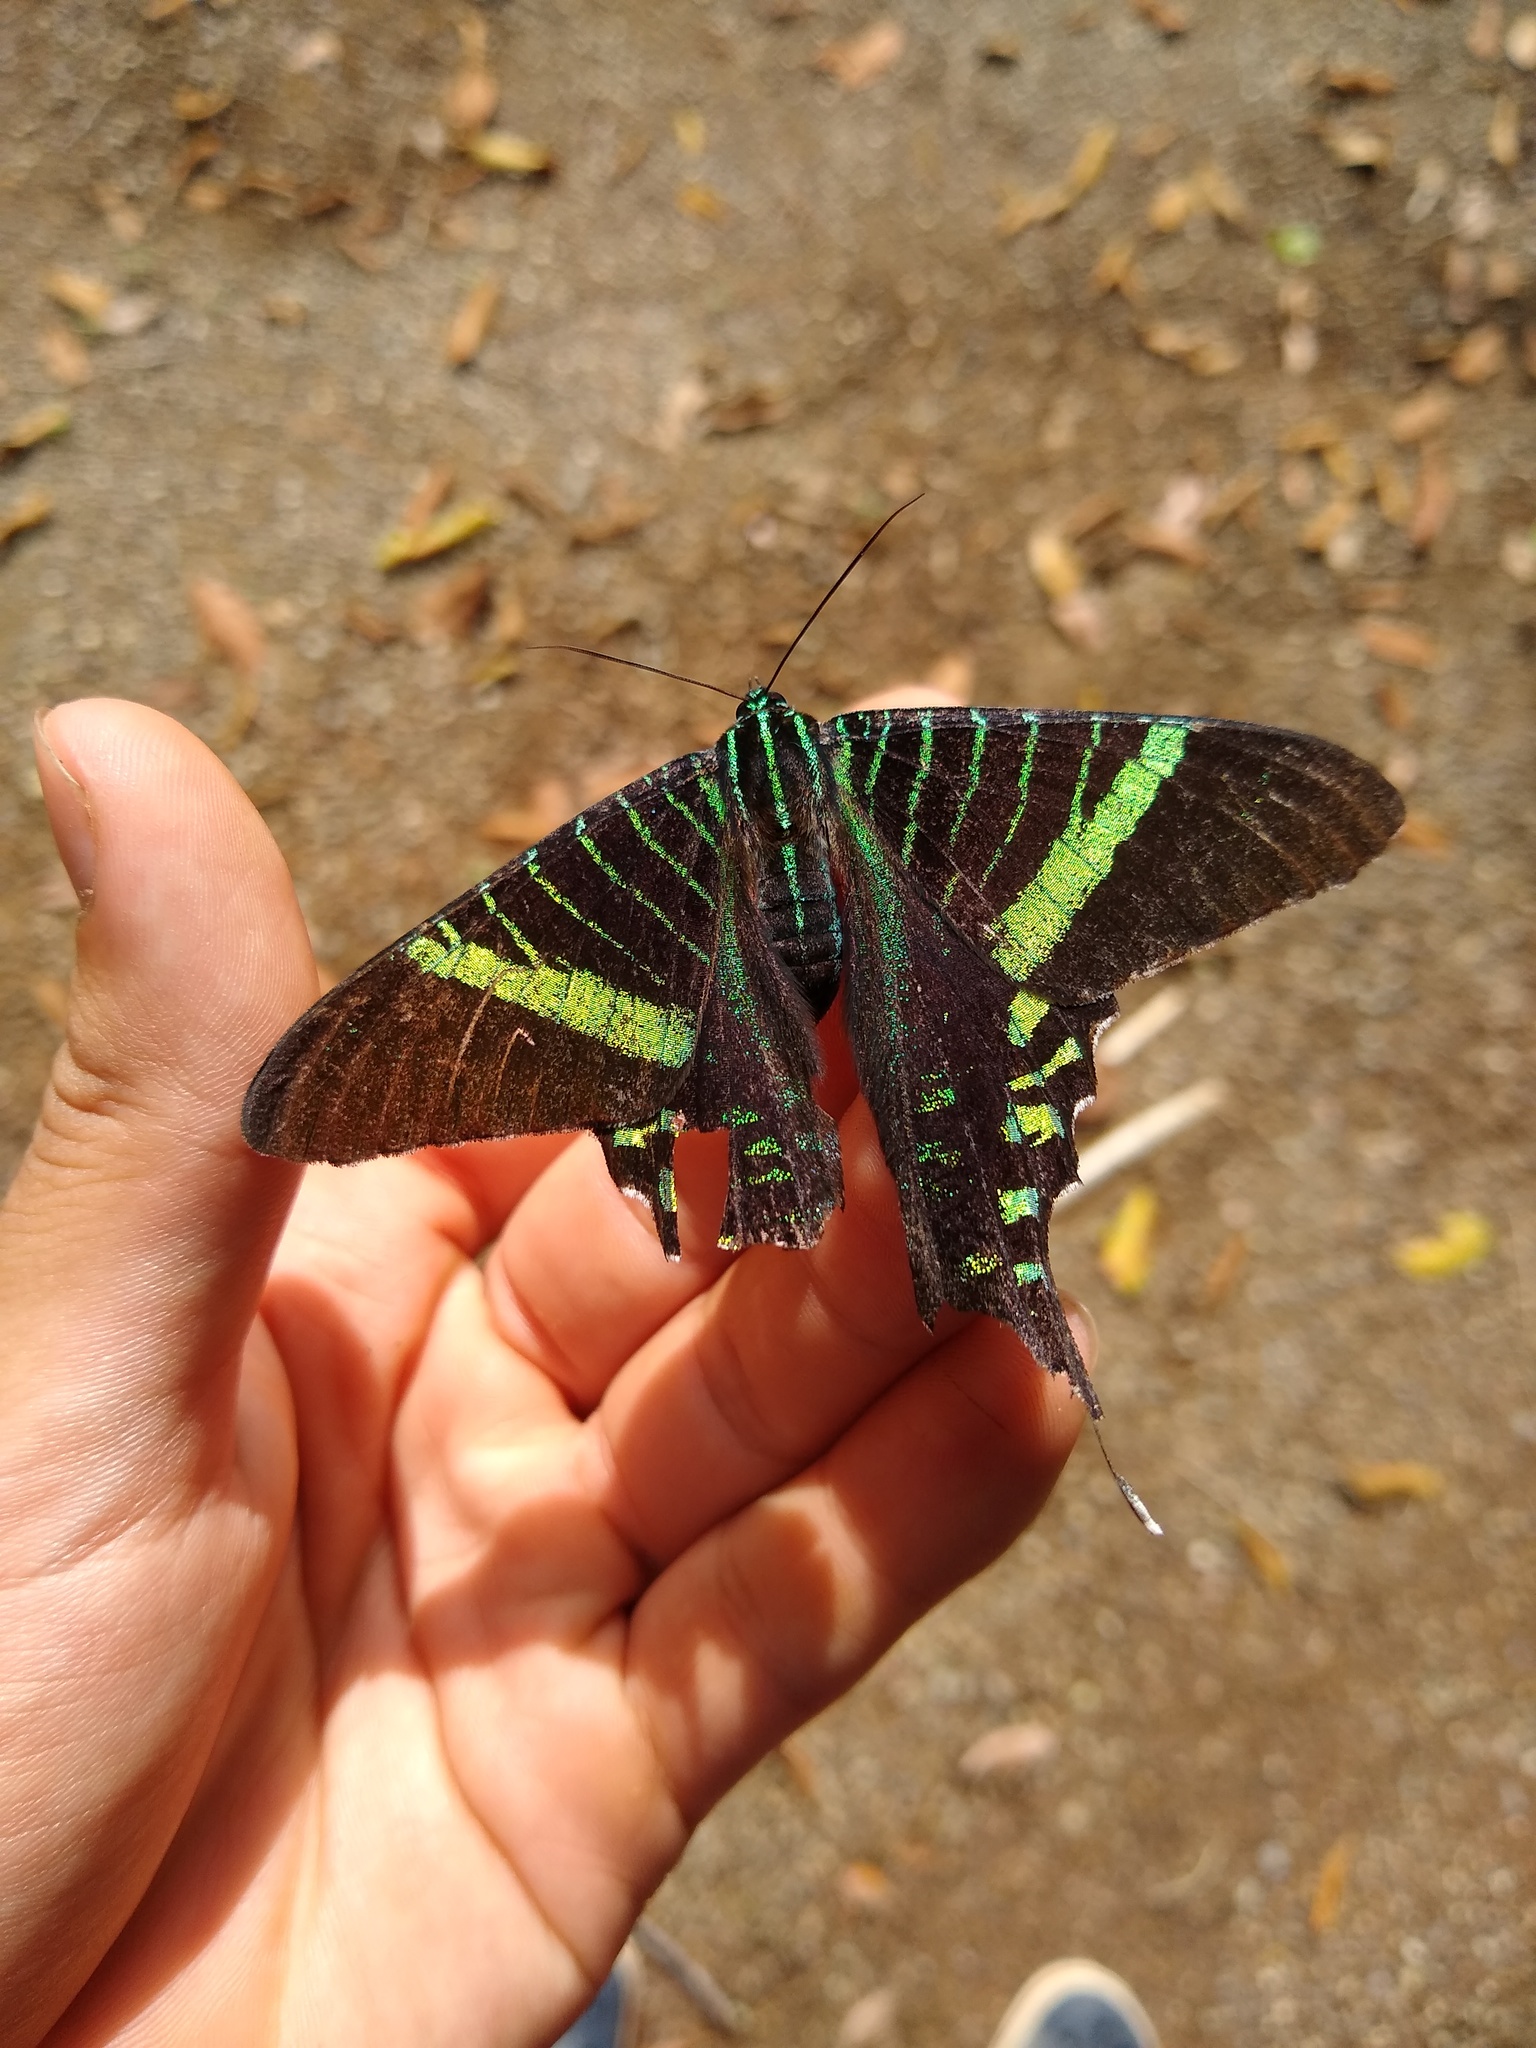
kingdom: Animalia
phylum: Arthropoda
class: Insecta
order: Lepidoptera
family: Uraniidae
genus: Urania
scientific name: Urania fulgens
